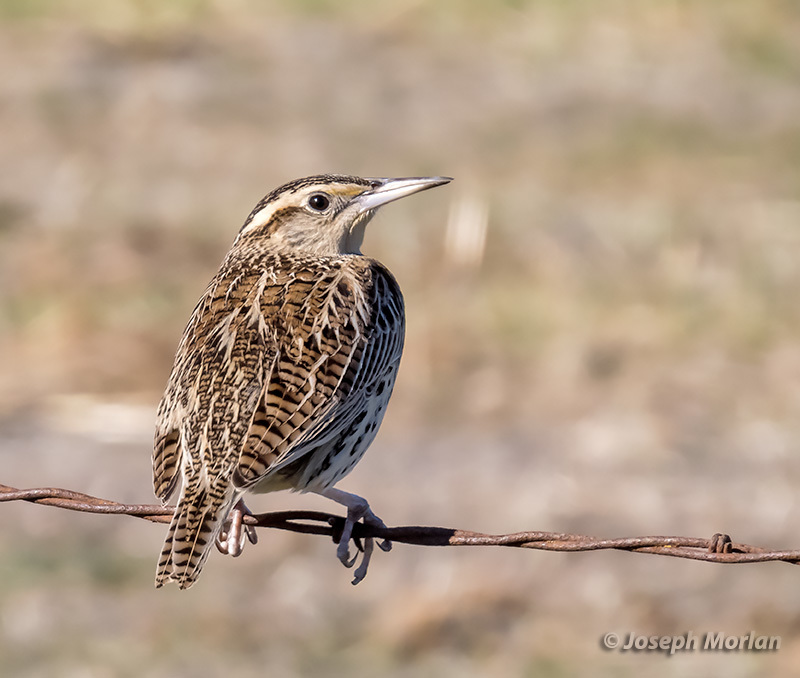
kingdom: Animalia
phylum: Chordata
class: Aves
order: Passeriformes
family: Icteridae
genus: Sturnella
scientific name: Sturnella neglecta
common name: Western meadowlark
